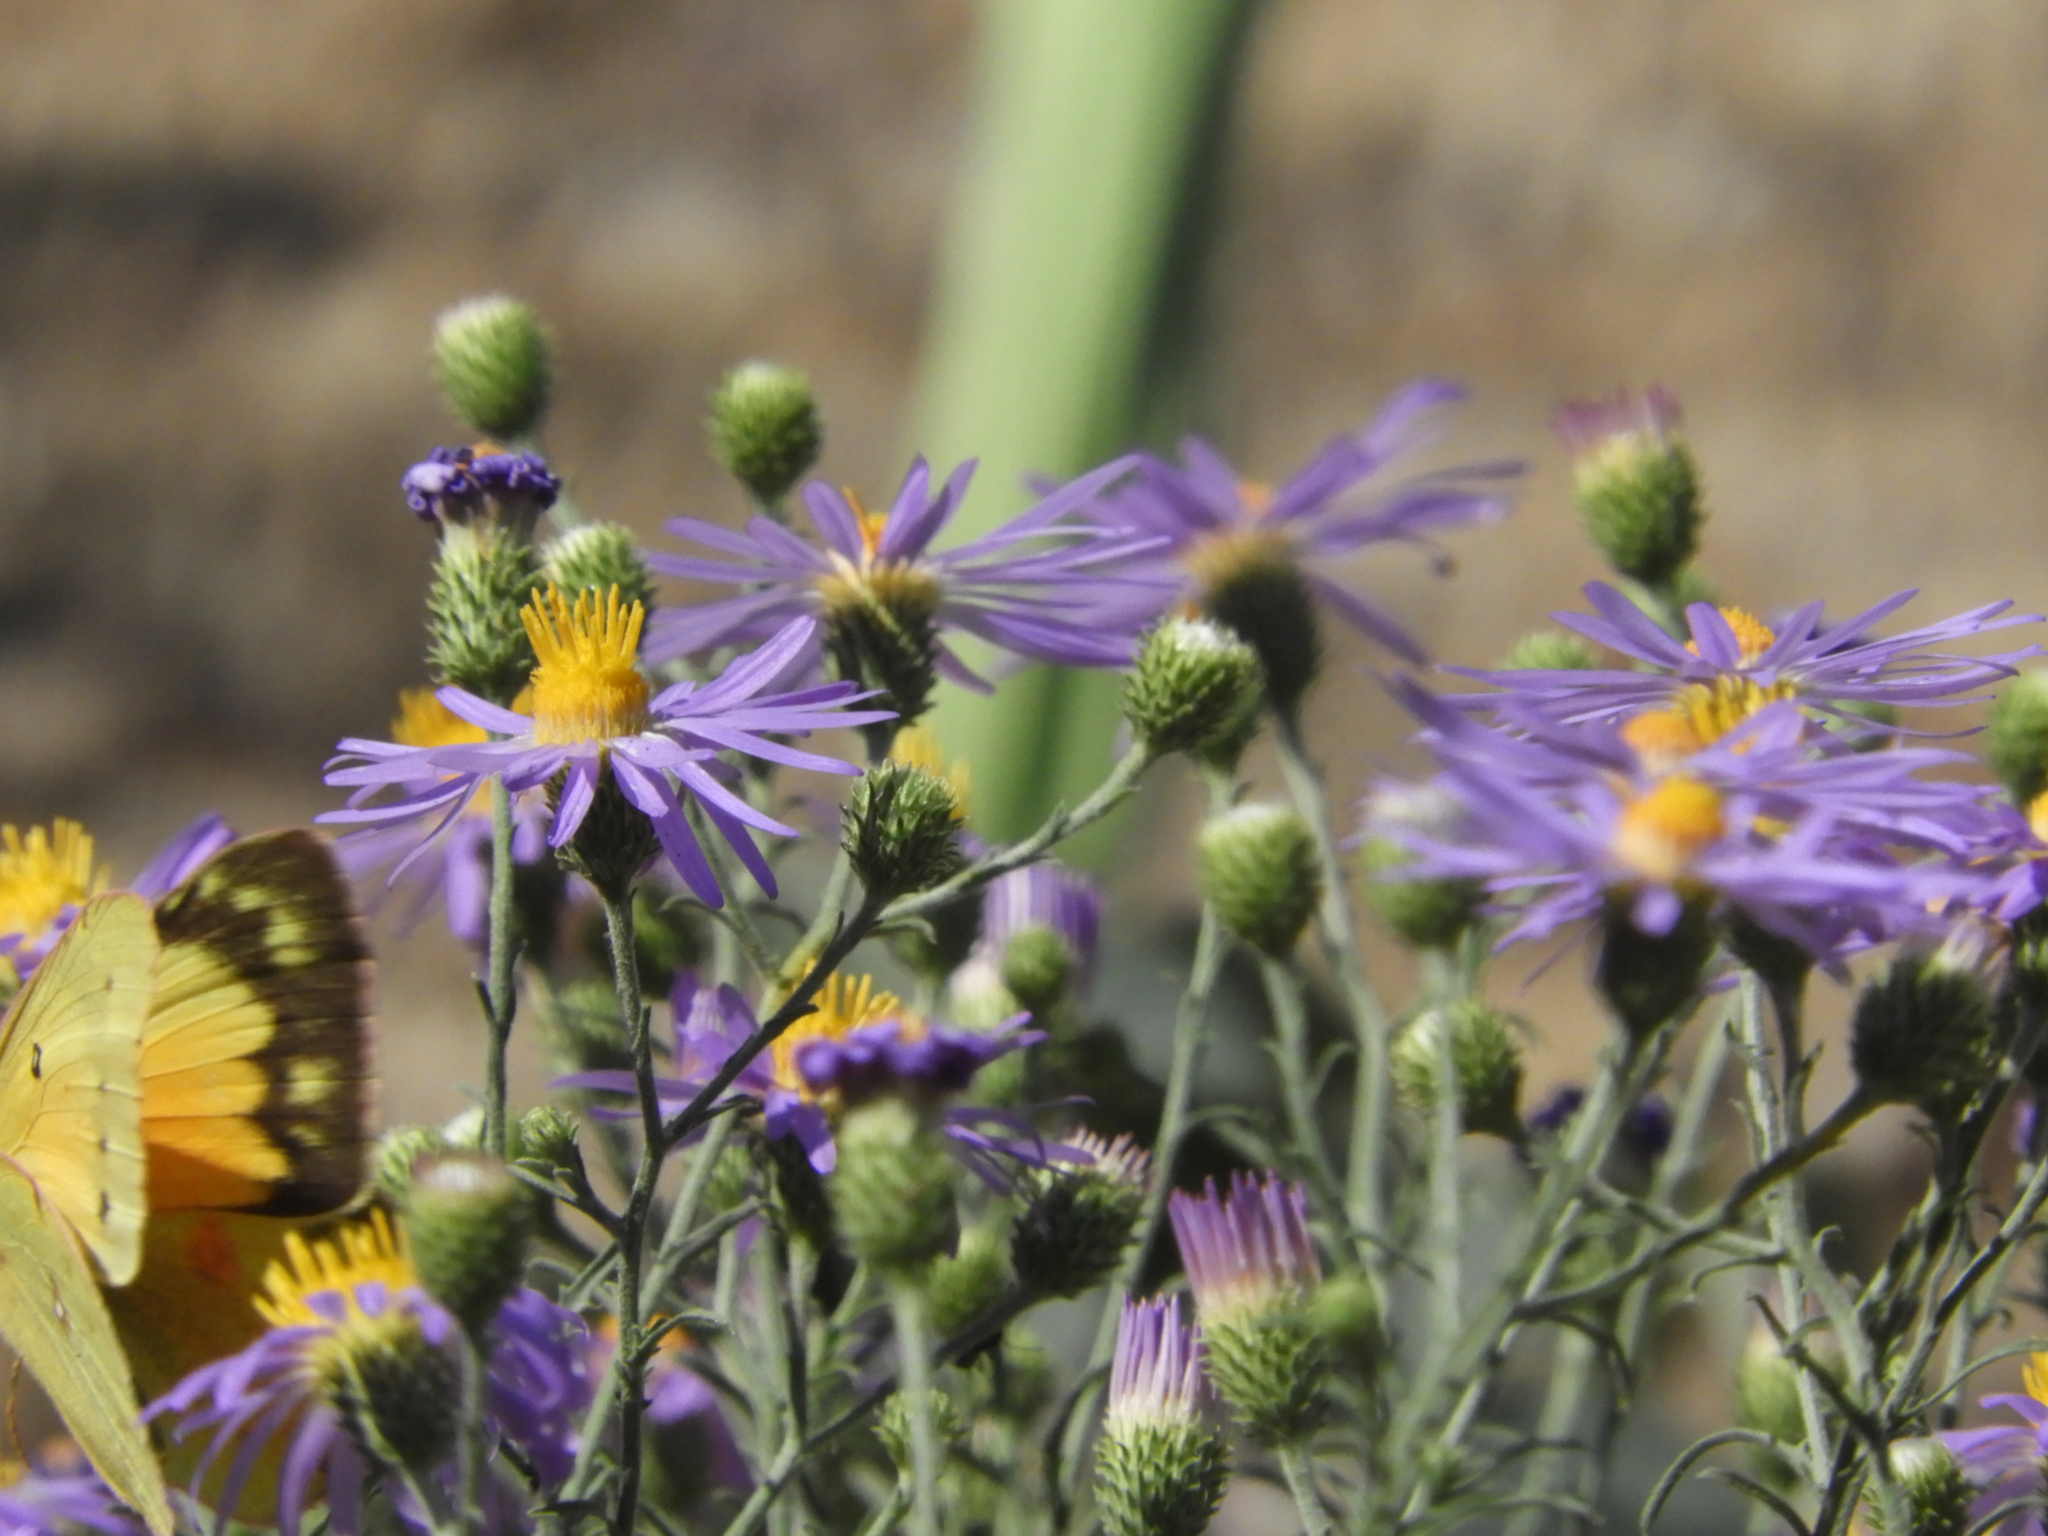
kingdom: Animalia
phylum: Arthropoda
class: Insecta
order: Lepidoptera
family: Pieridae
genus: Colias
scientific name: Colias eurytheme
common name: Alfalfa butterfly
